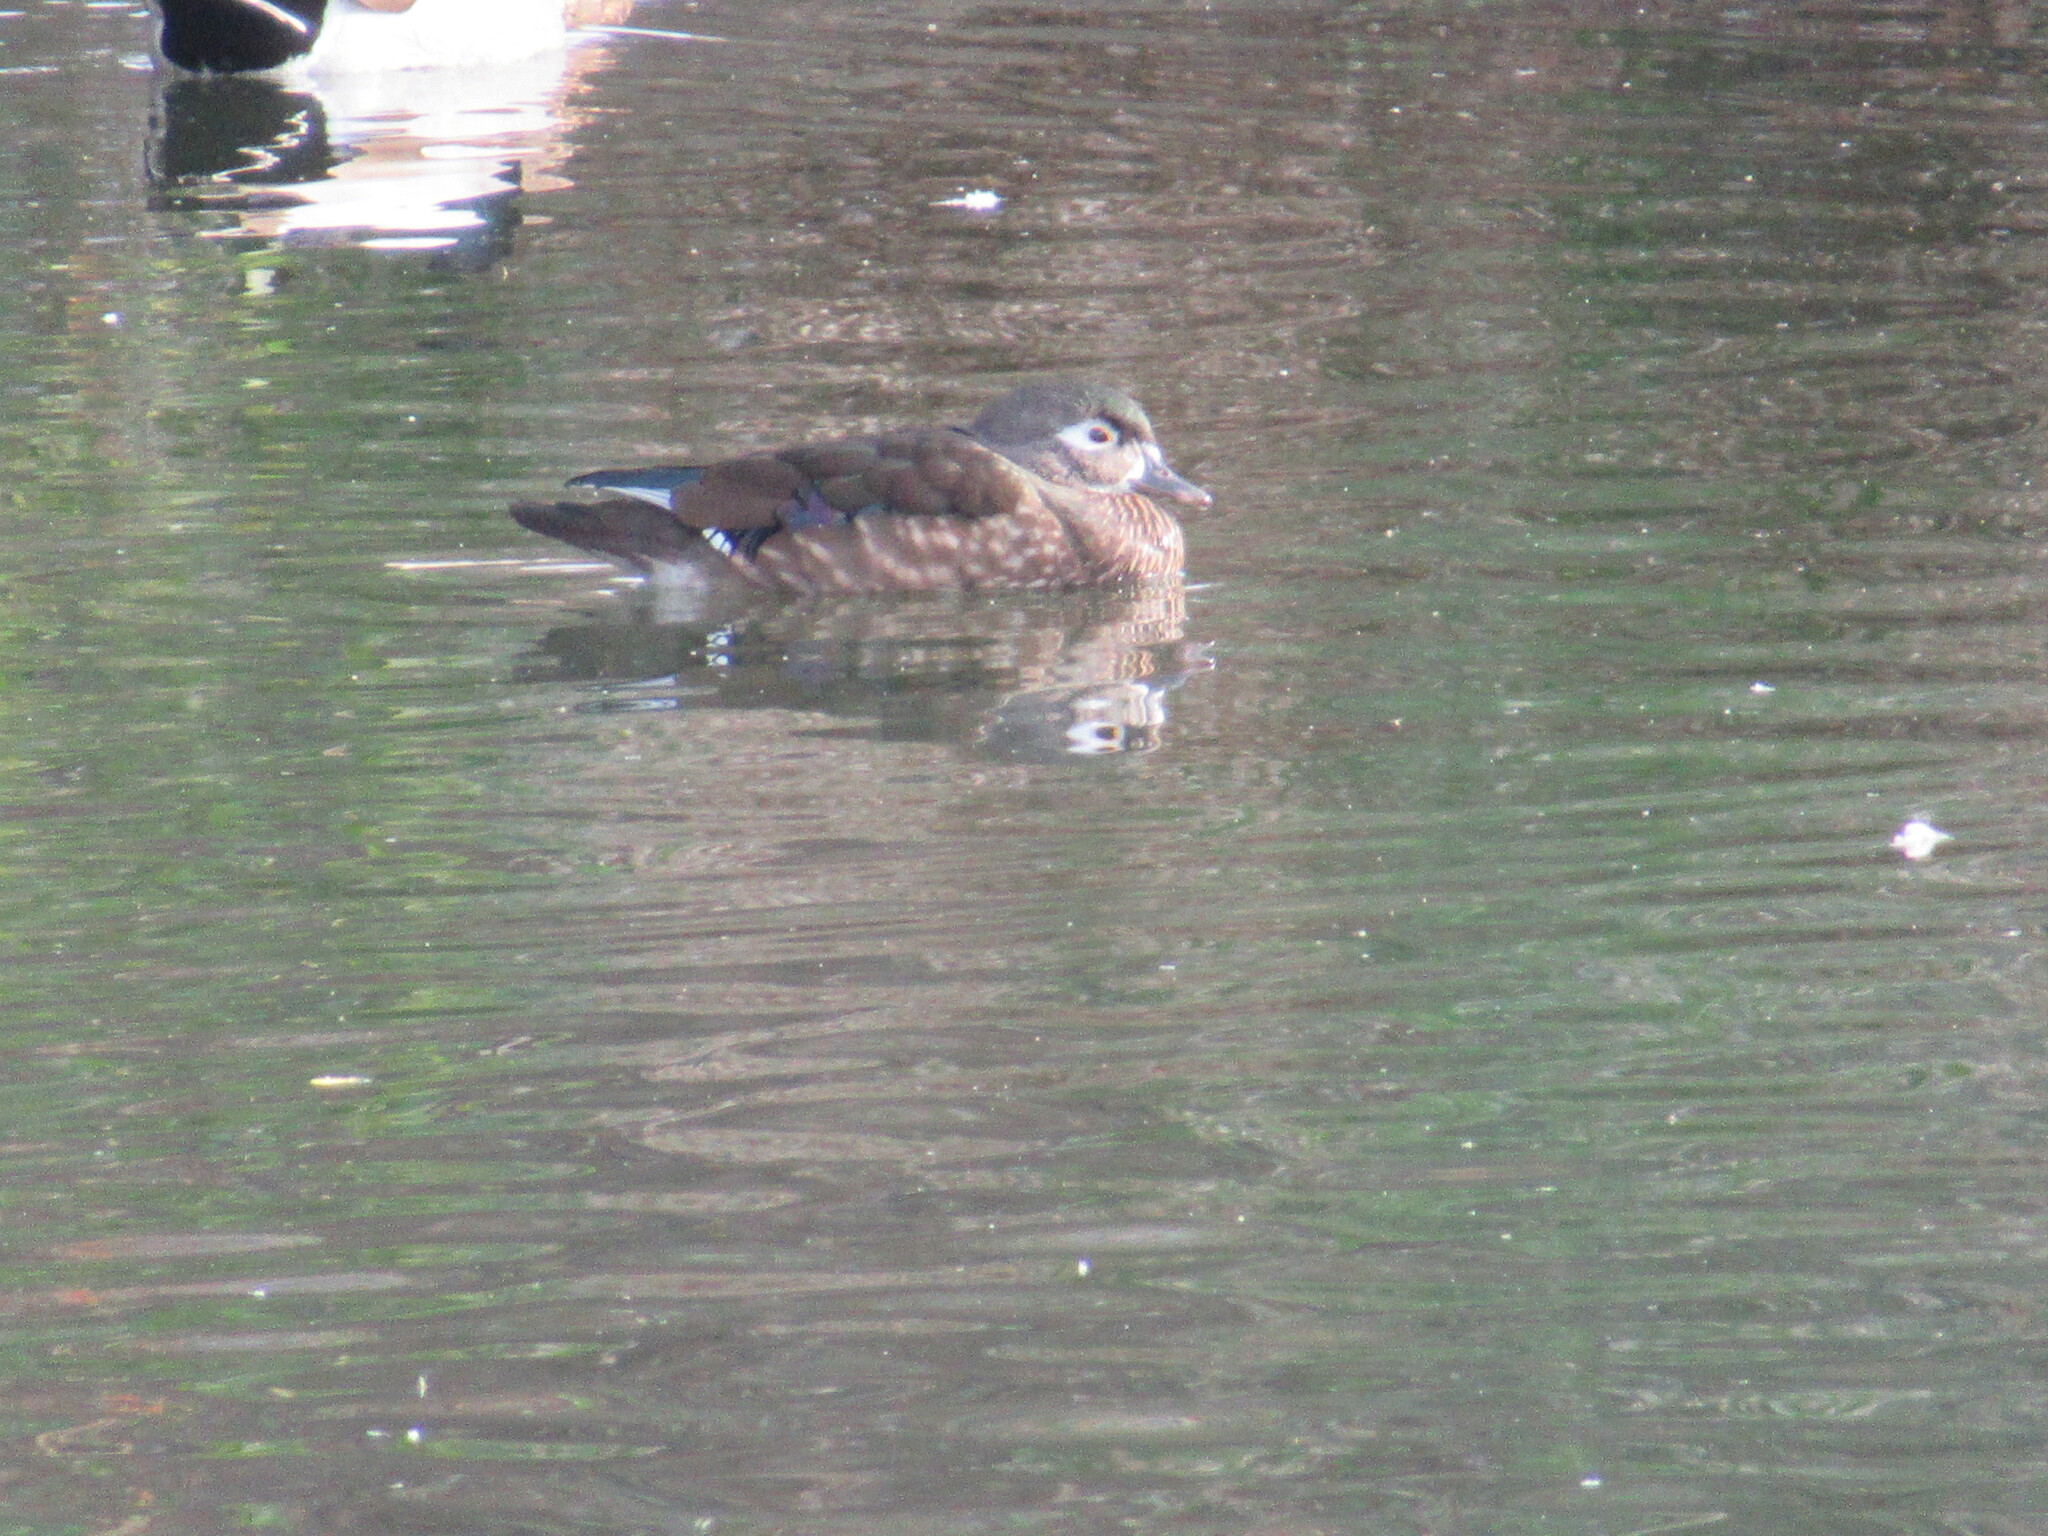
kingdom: Animalia
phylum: Chordata
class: Aves
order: Anseriformes
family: Anatidae
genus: Aix
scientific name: Aix sponsa
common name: Wood duck
